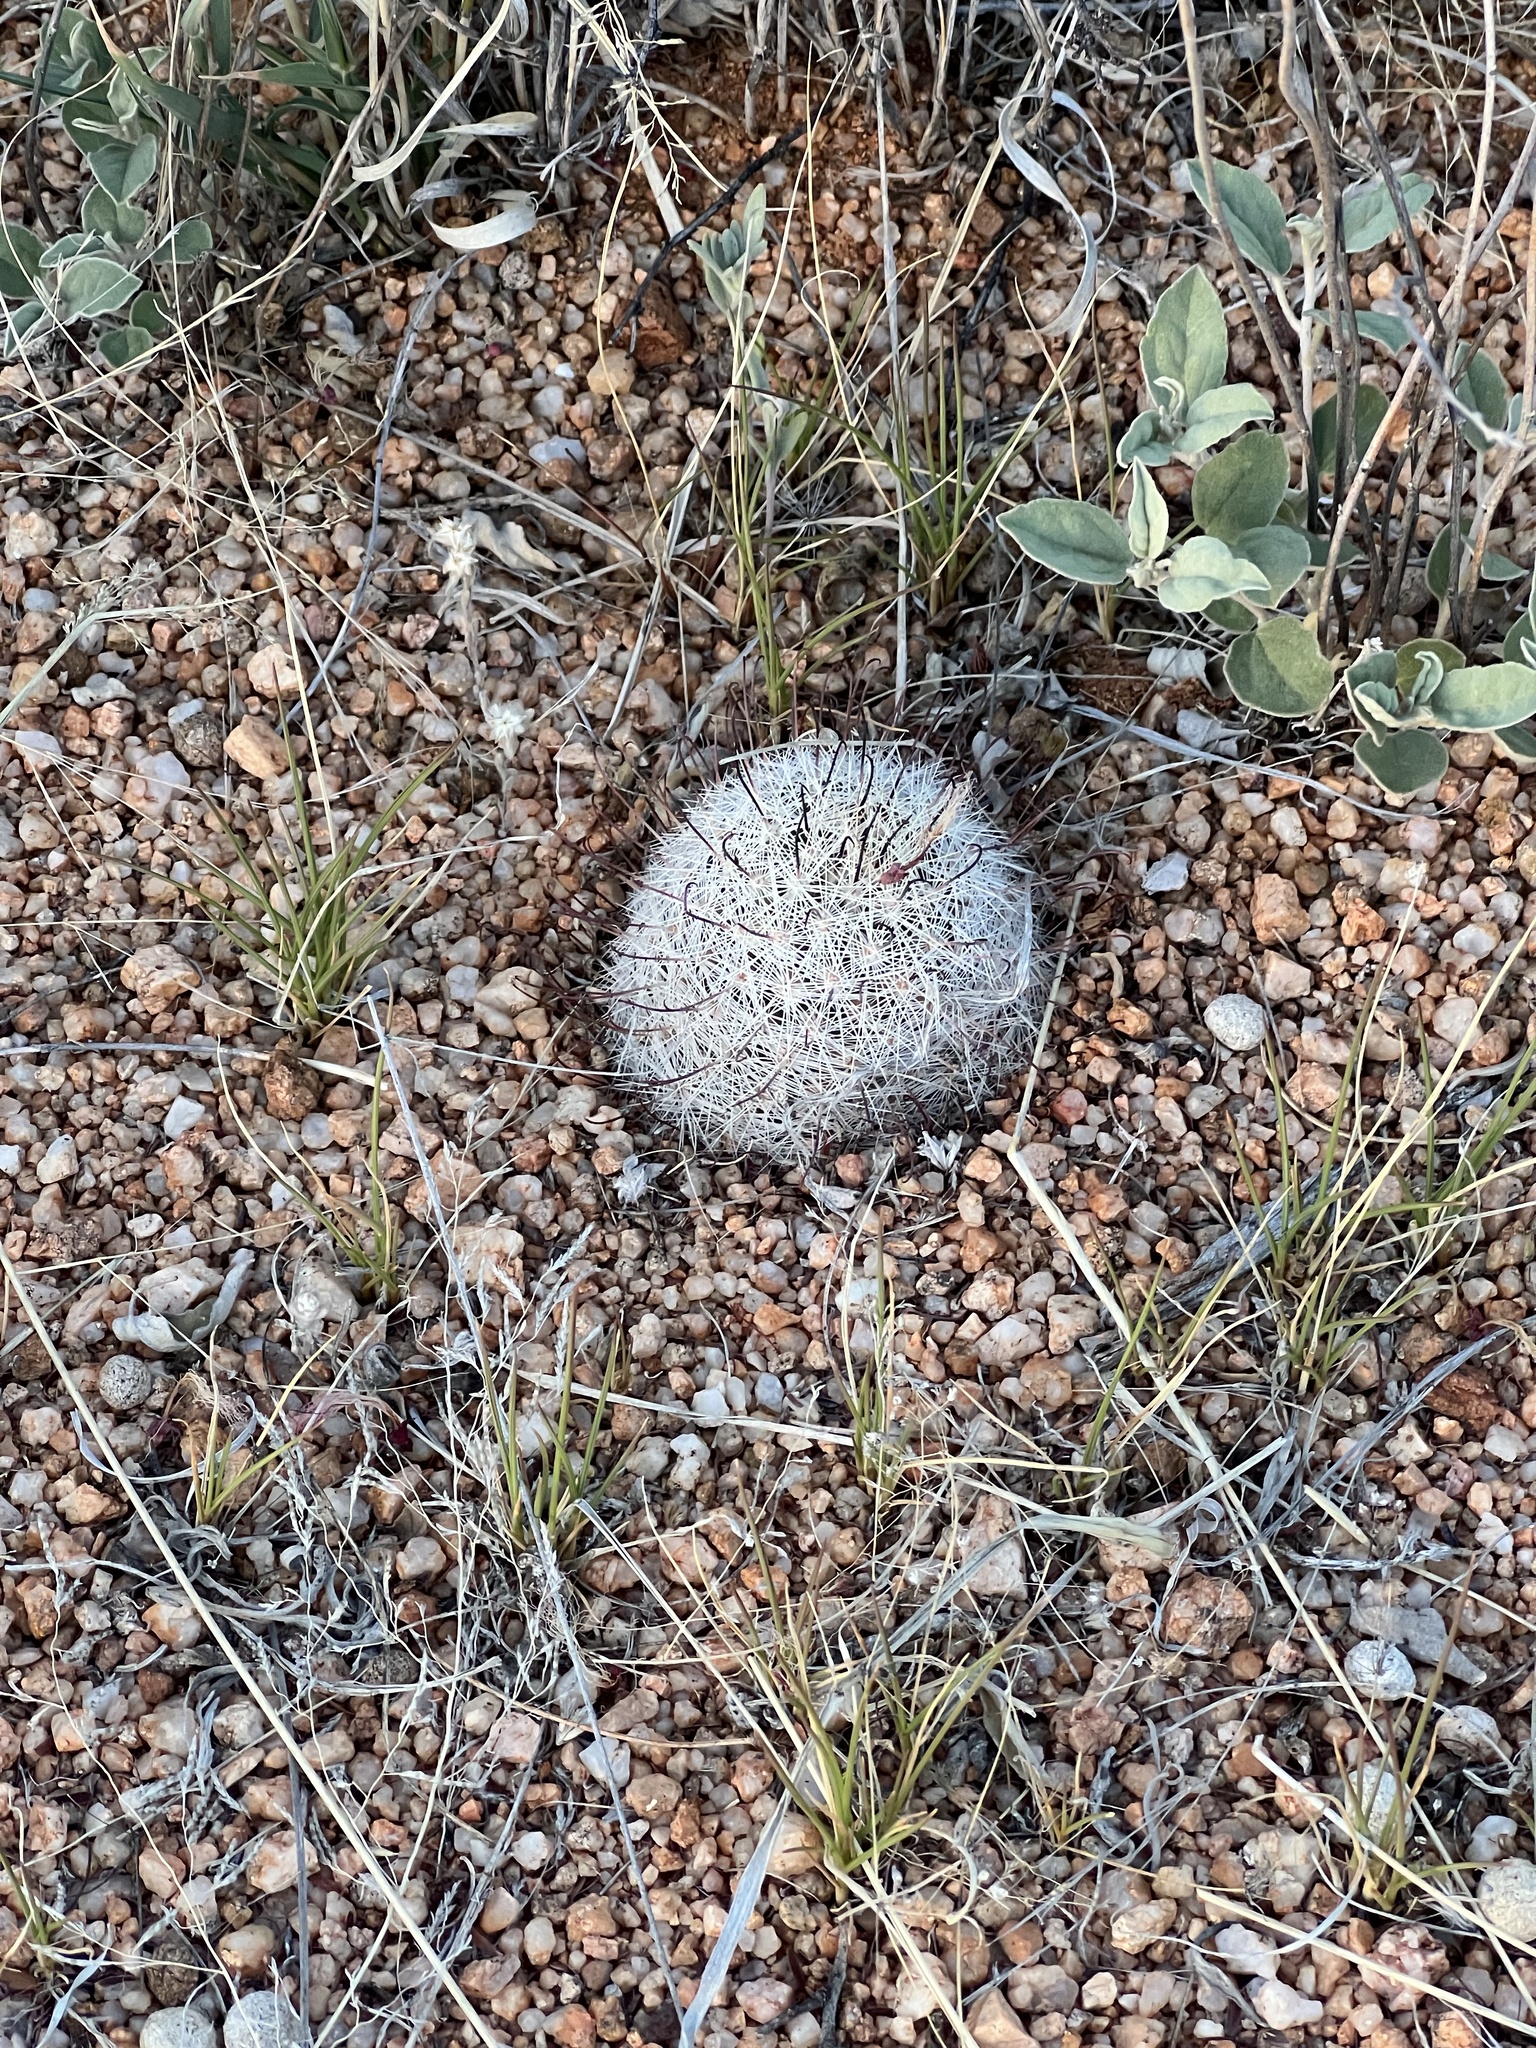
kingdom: Plantae
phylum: Tracheophyta
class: Magnoliopsida
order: Caryophyllales
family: Cactaceae
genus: Cochemiea
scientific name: Cochemiea grahamii
